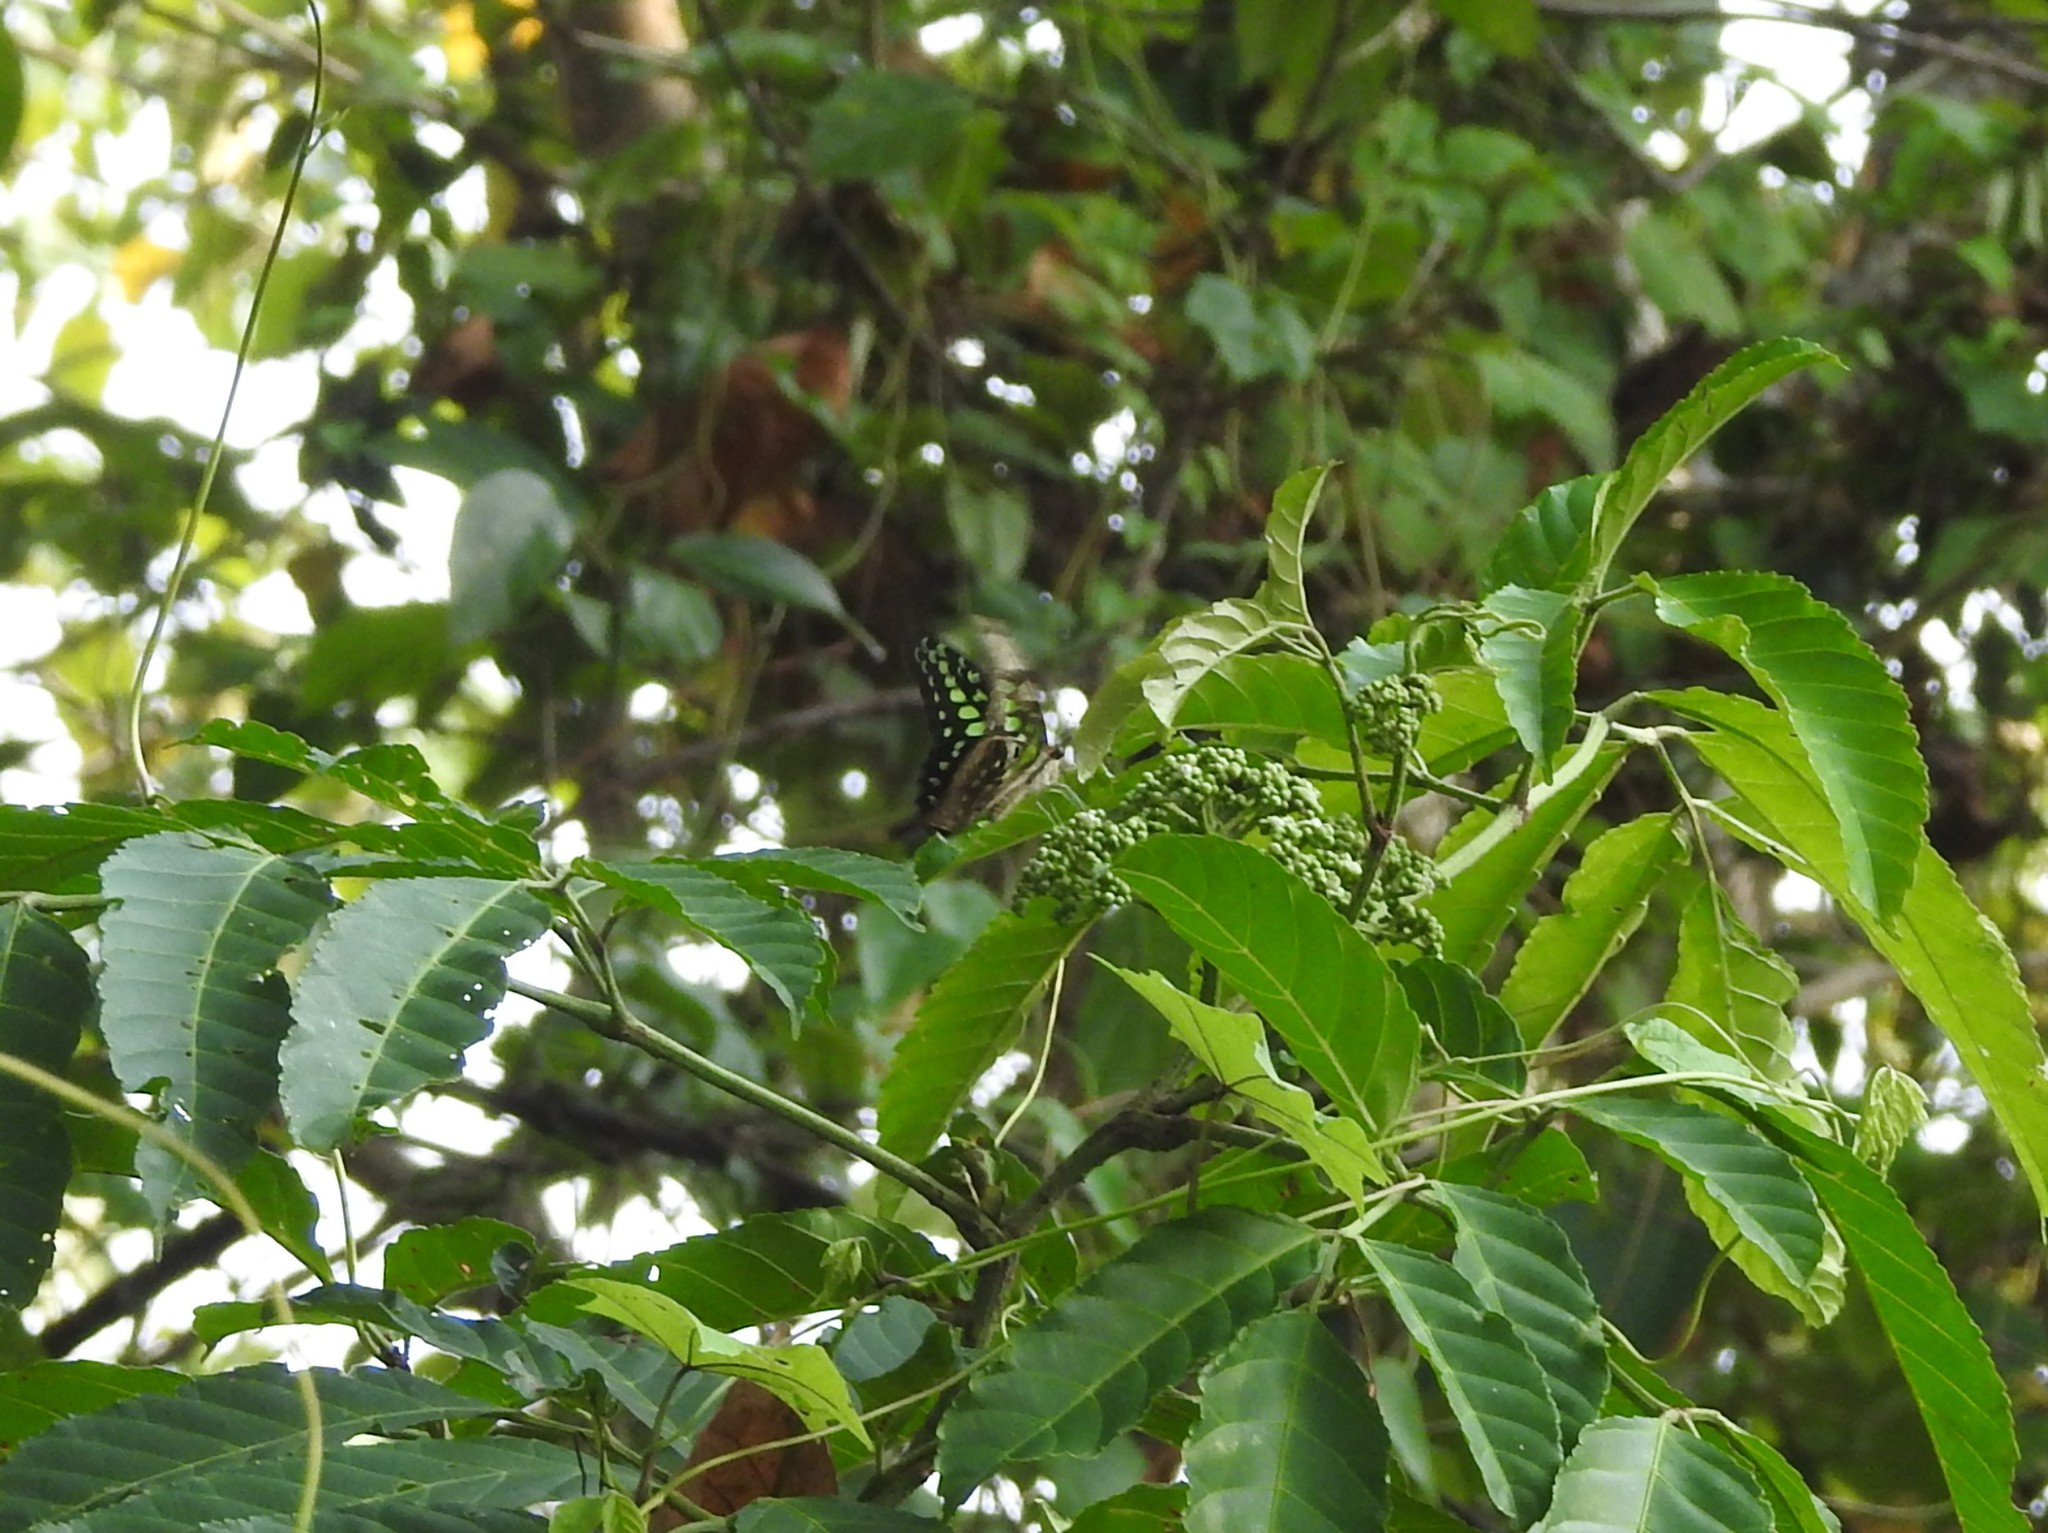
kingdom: Animalia
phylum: Arthropoda
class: Insecta
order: Lepidoptera
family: Papilionidae
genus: Graphium
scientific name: Graphium agamemnon
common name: Tailed jay
